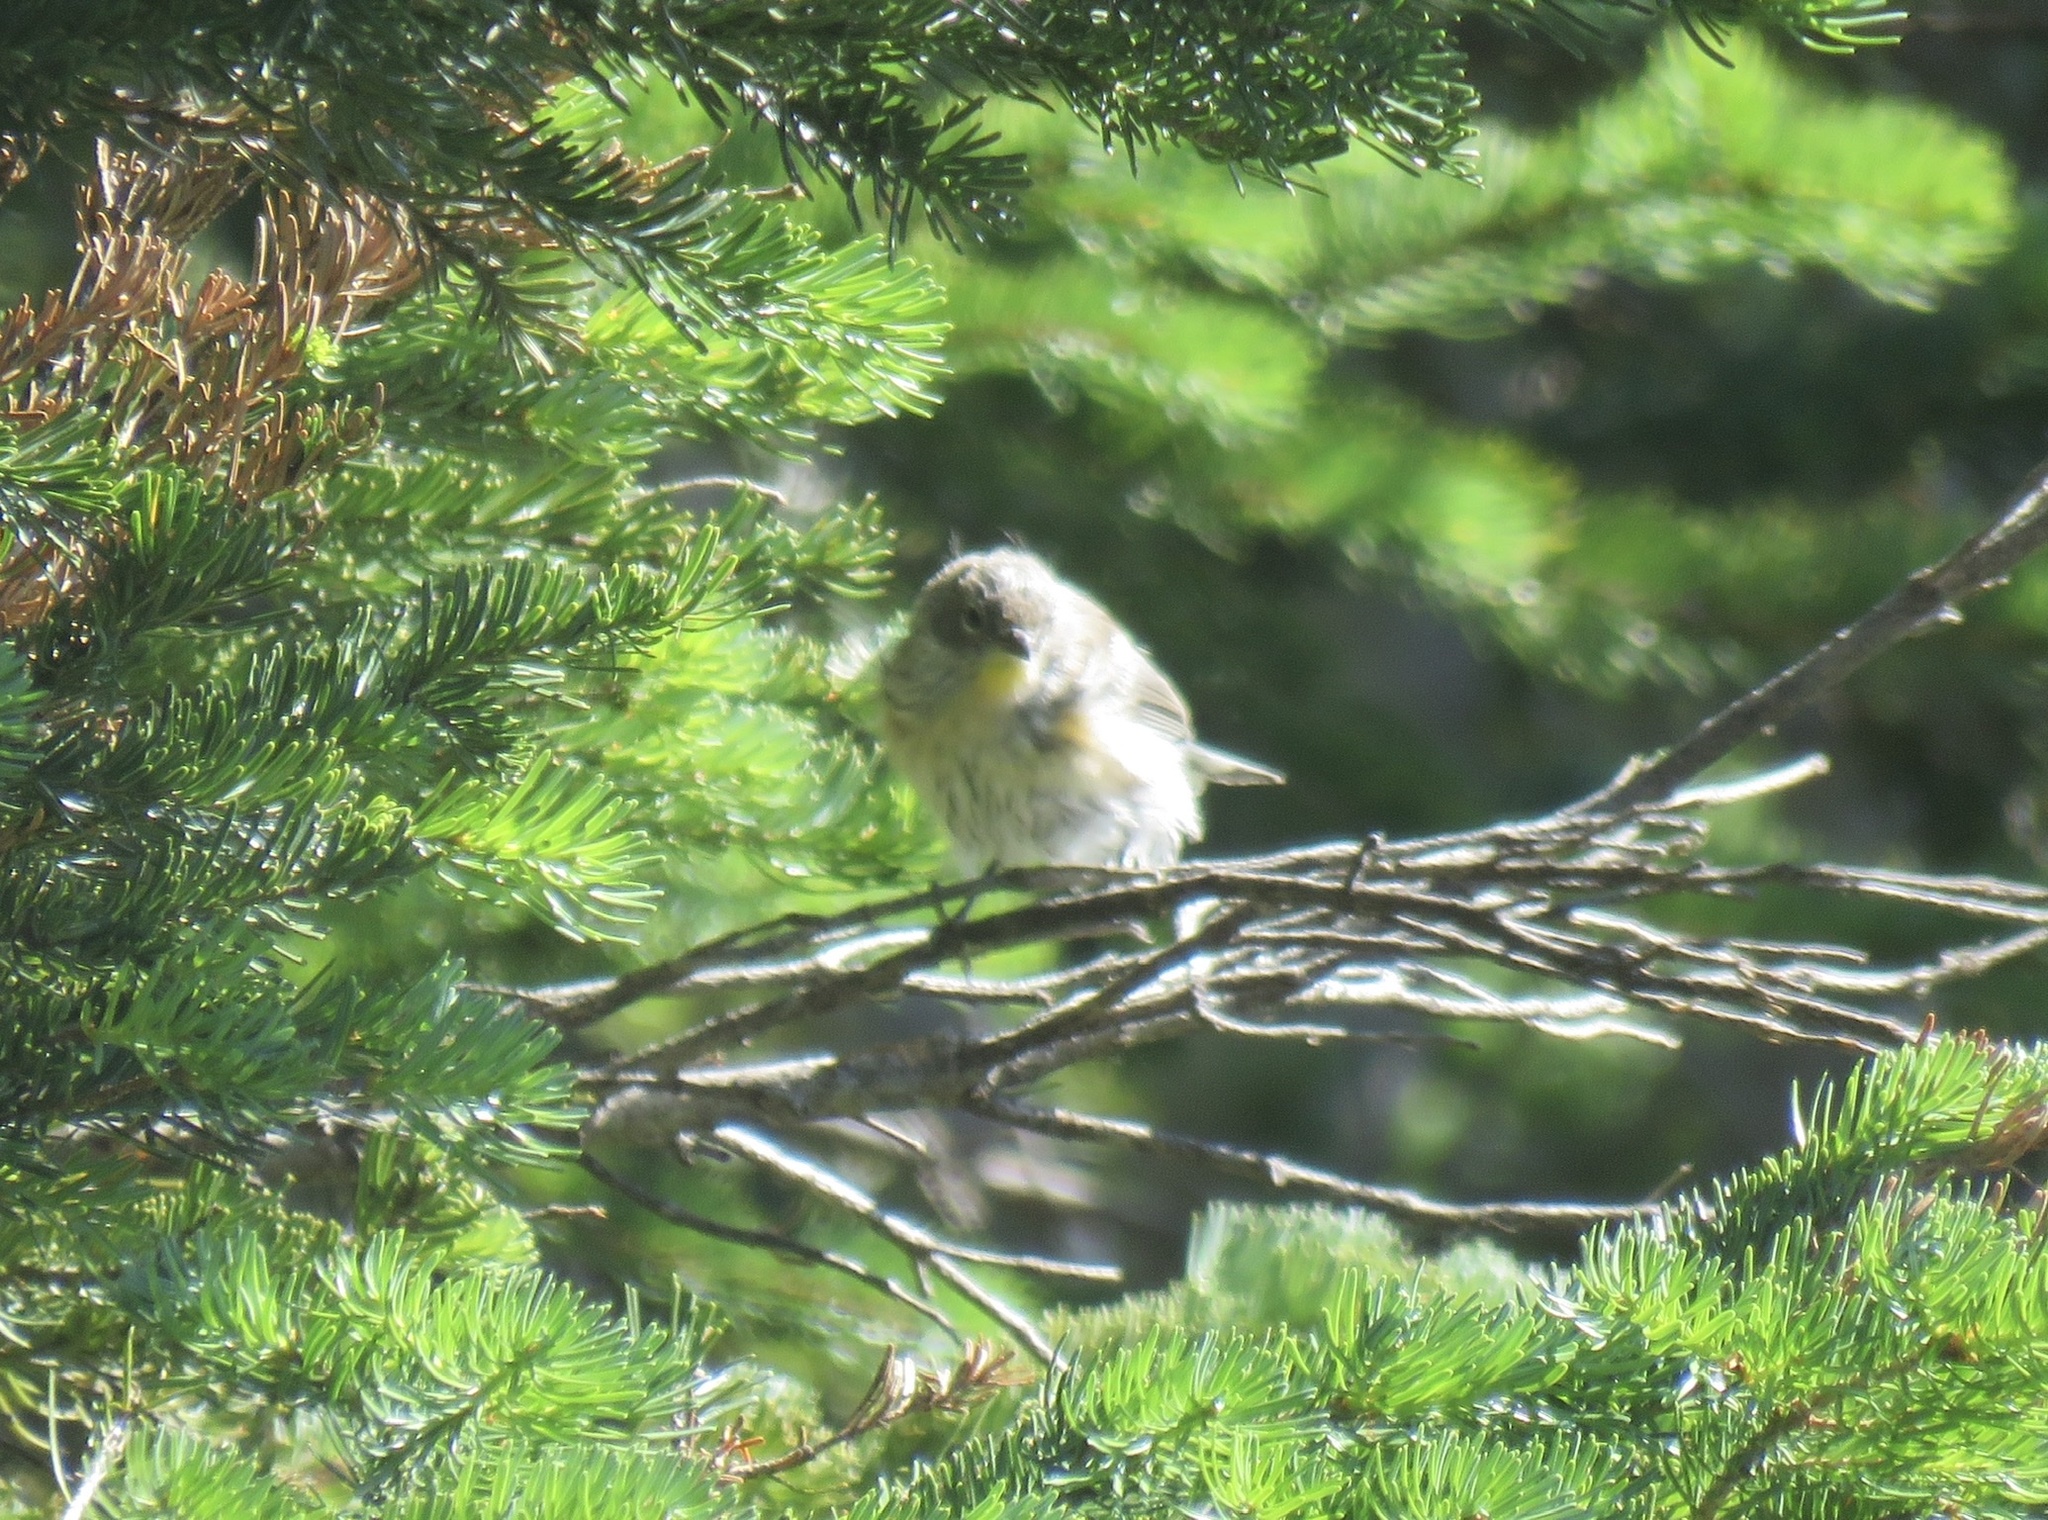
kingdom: Animalia
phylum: Chordata
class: Aves
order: Passeriformes
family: Parulidae
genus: Setophaga
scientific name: Setophaga coronata
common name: Myrtle warbler
